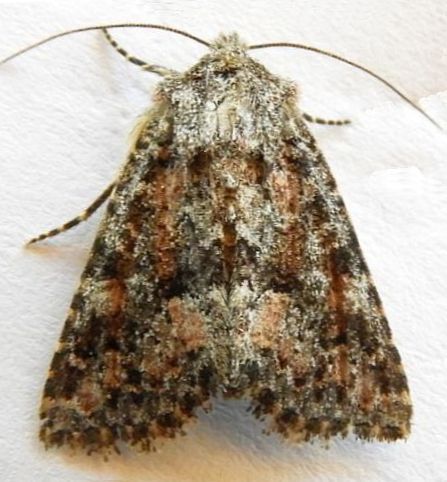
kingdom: Animalia
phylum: Arthropoda
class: Insecta
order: Lepidoptera
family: Noctuidae
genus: Pseudanarta
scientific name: Pseudanarta pulverulenta
